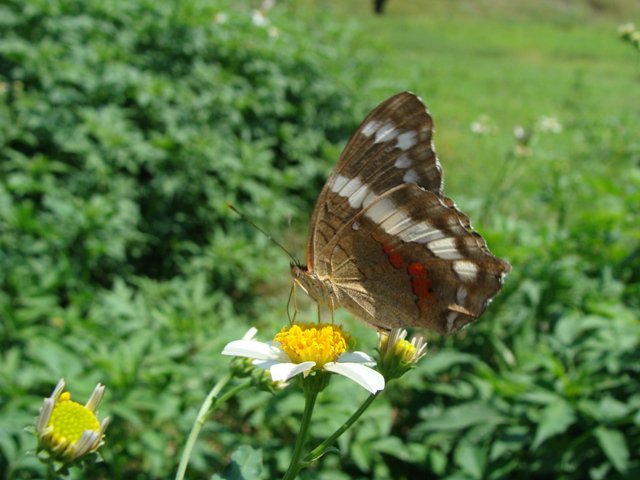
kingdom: Animalia
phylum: Arthropoda
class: Insecta
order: Lepidoptera
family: Nymphalidae
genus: Anartia
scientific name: Anartia fatima
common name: Banded peacock
